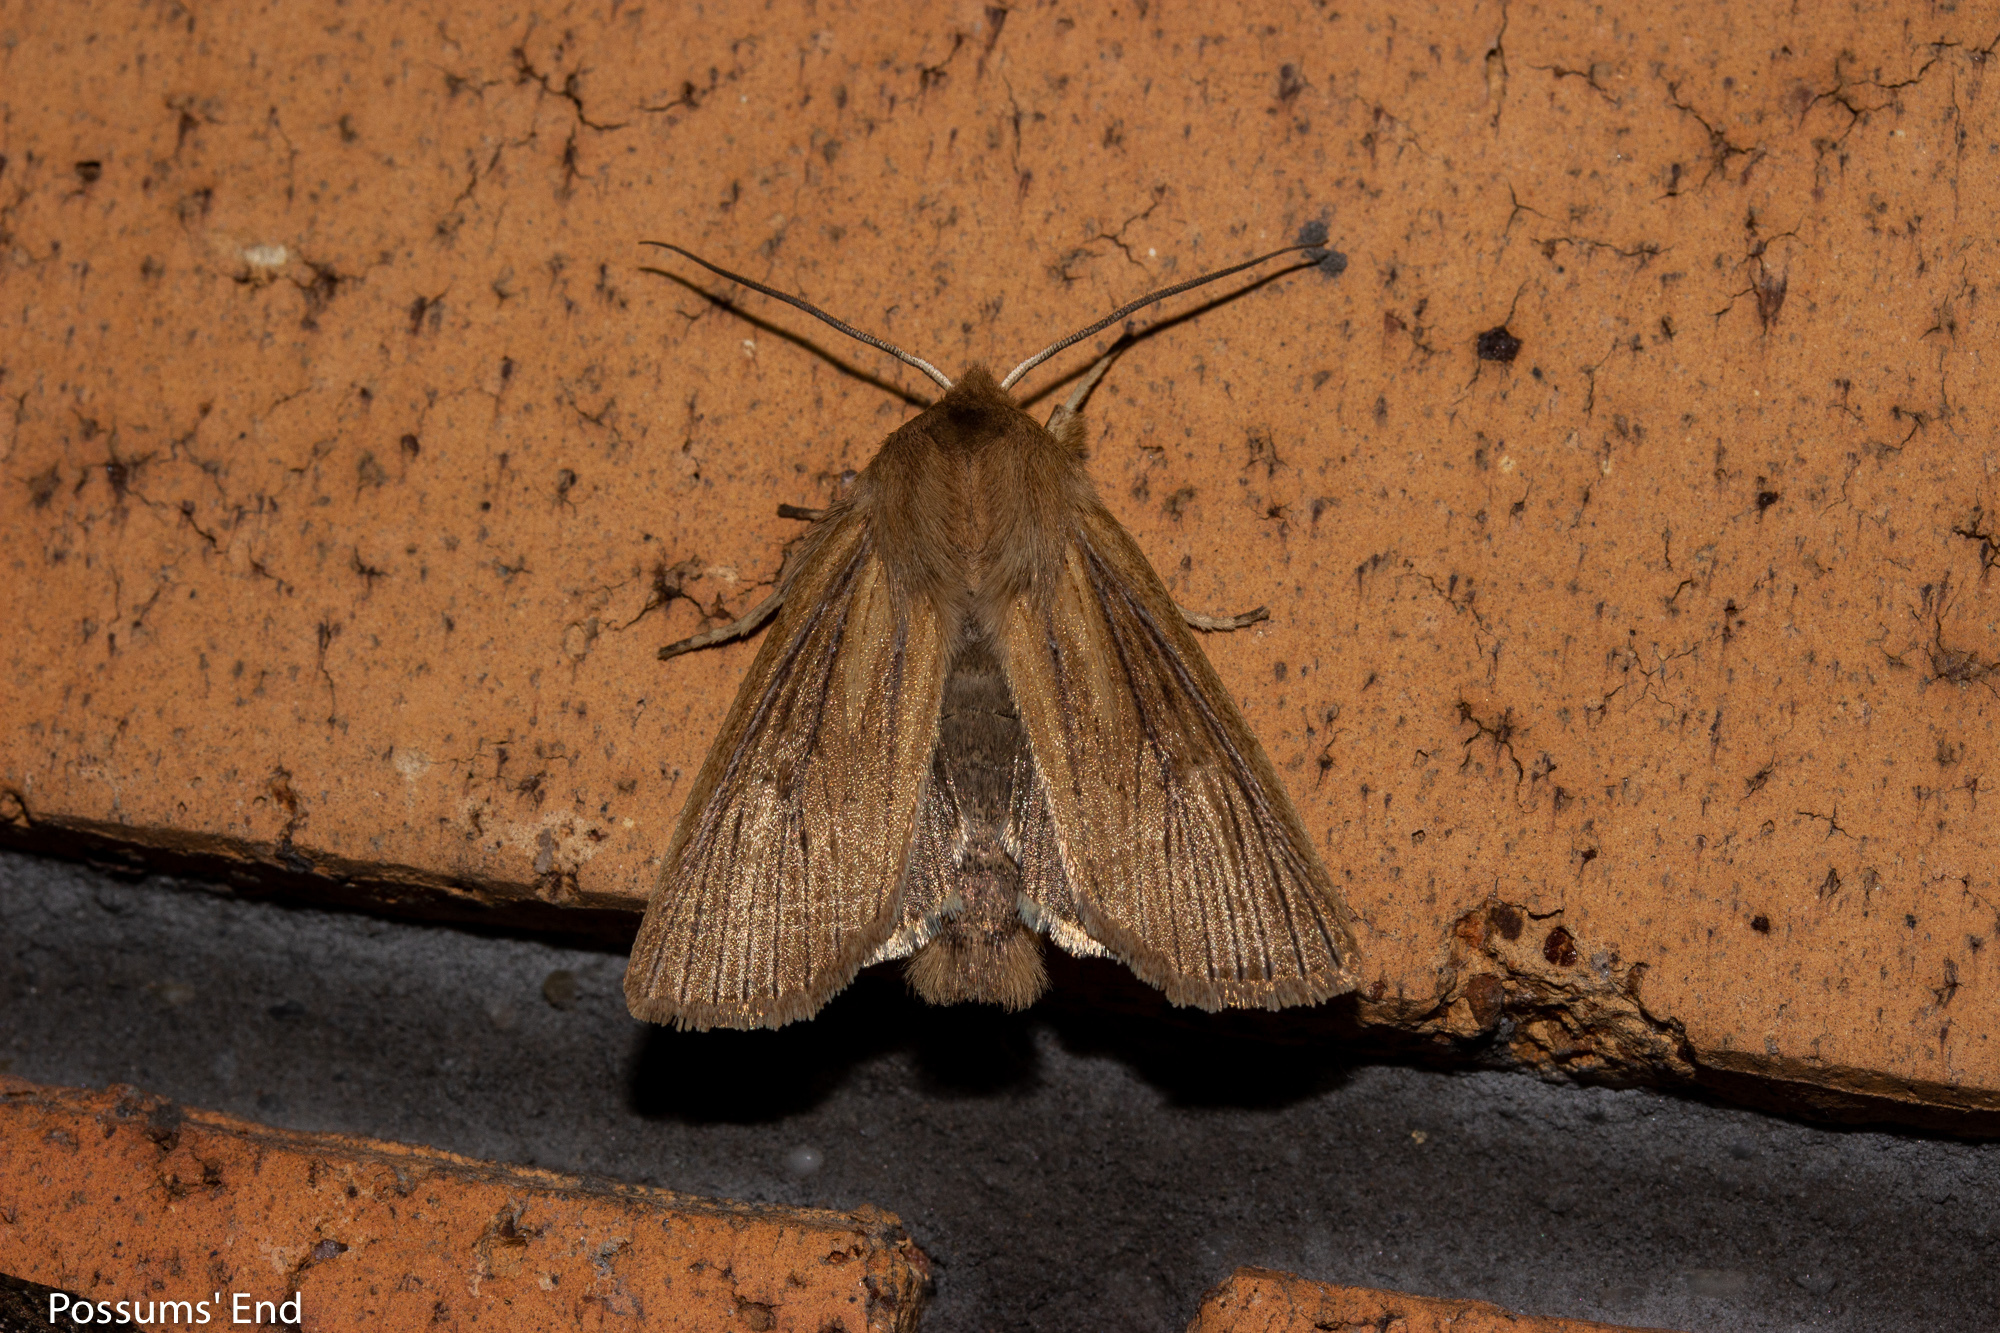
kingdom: Animalia
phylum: Arthropoda
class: Insecta
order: Lepidoptera
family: Noctuidae
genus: Ichneutica
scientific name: Ichneutica arotis
